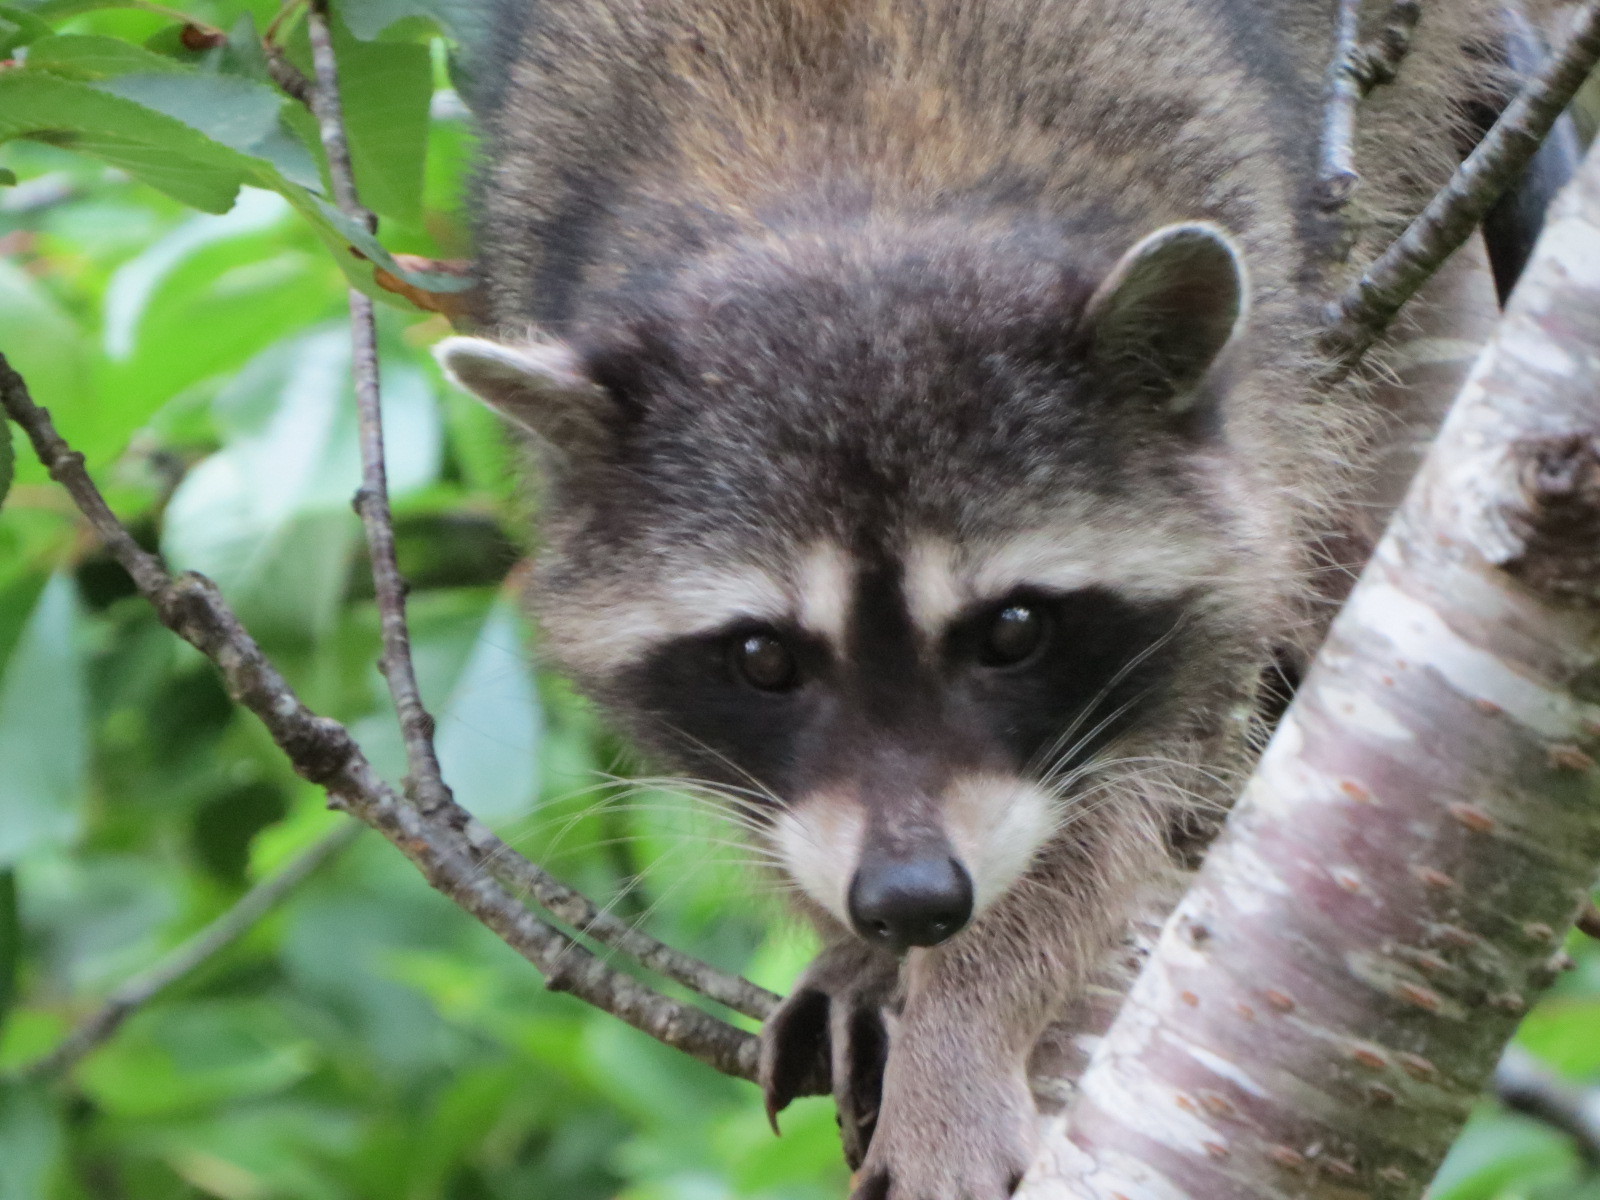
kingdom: Animalia
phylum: Chordata
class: Mammalia
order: Carnivora
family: Procyonidae
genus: Procyon
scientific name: Procyon lotor
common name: Raccoon
